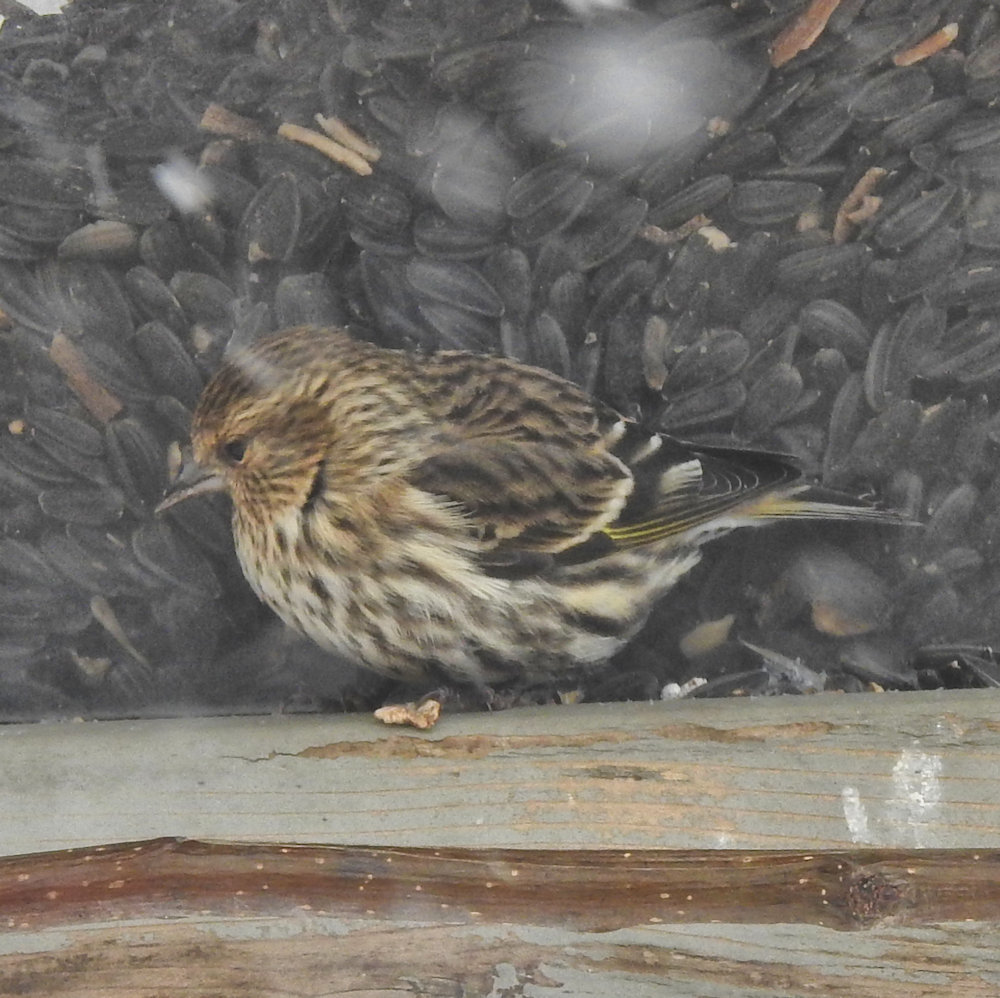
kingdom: Animalia
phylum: Chordata
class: Aves
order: Passeriformes
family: Fringillidae
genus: Spinus
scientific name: Spinus pinus
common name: Pine siskin
